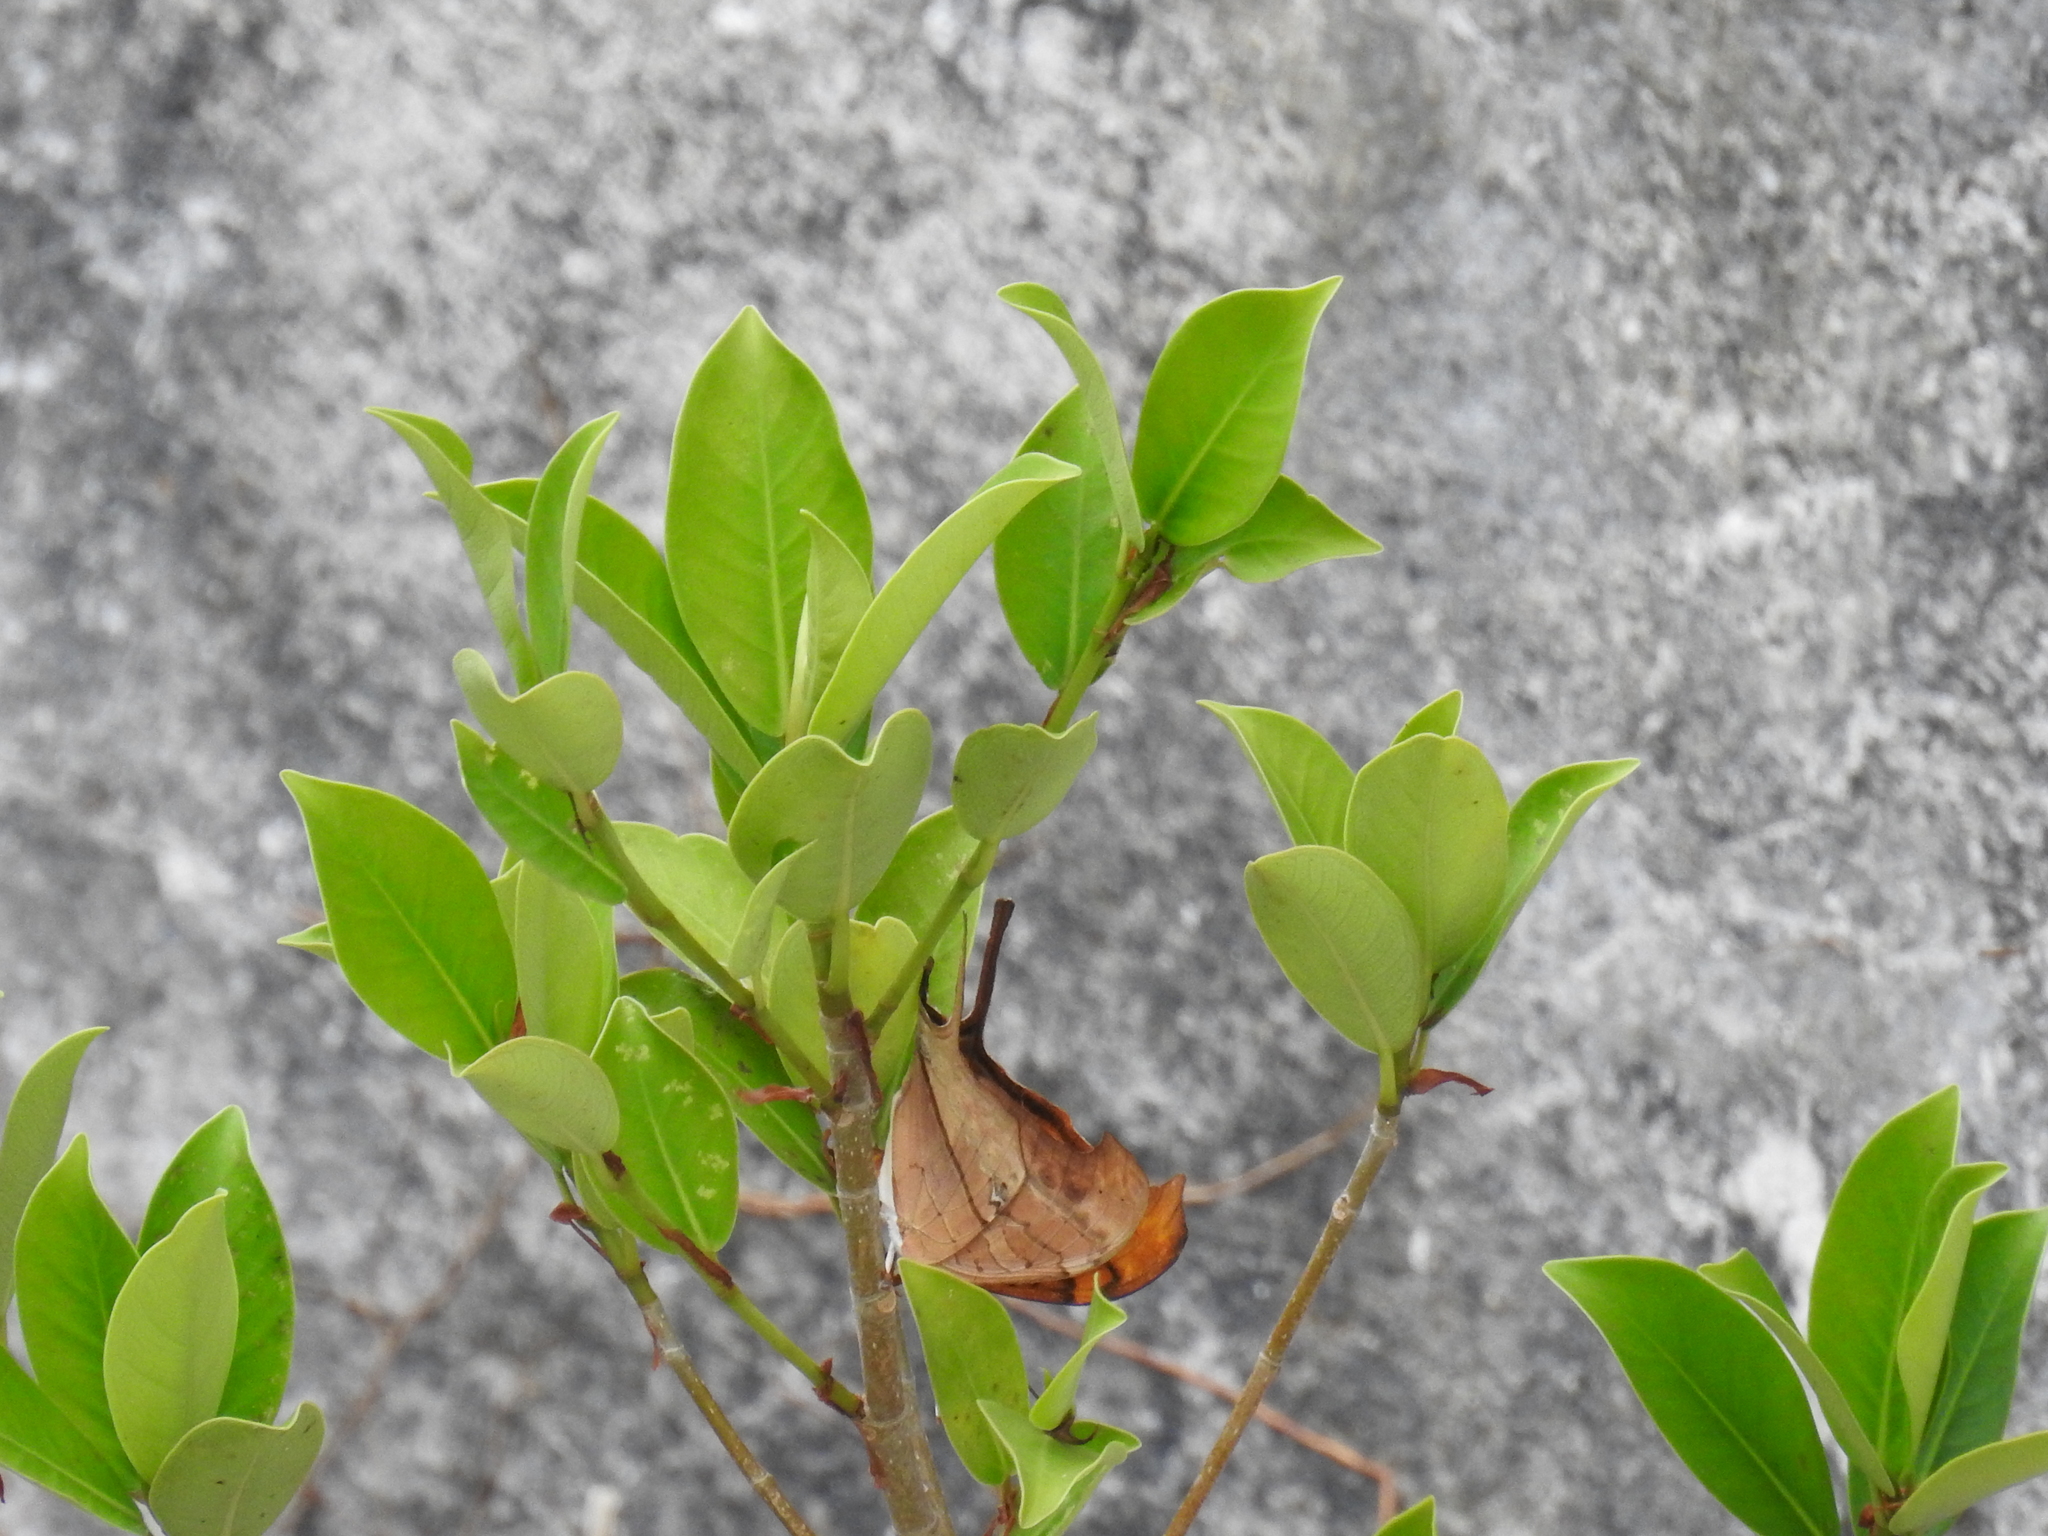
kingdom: Animalia
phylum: Arthropoda
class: Insecta
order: Lepidoptera
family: Nymphalidae
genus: Marpesia
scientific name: Marpesia petreus
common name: Red dagger wing
